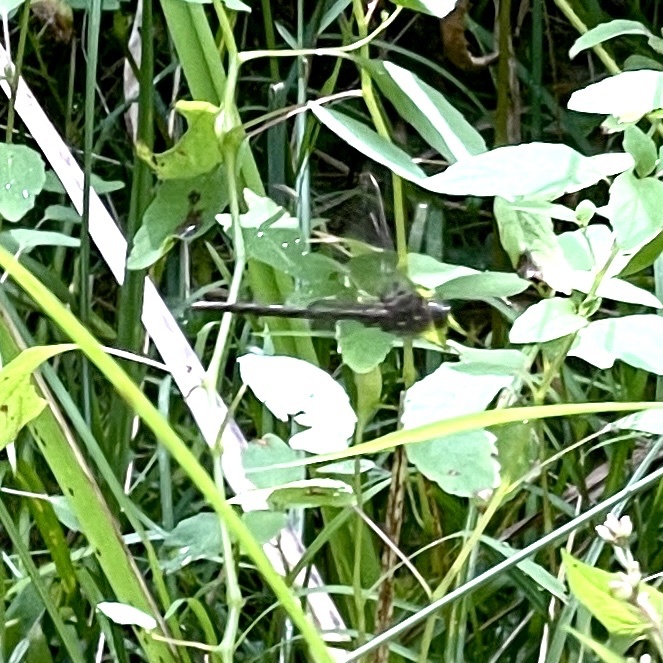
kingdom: Animalia
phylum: Arthropoda
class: Insecta
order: Odonata
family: Aeshnidae
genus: Boyeria
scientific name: Boyeria vinosa
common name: Fawn darner
